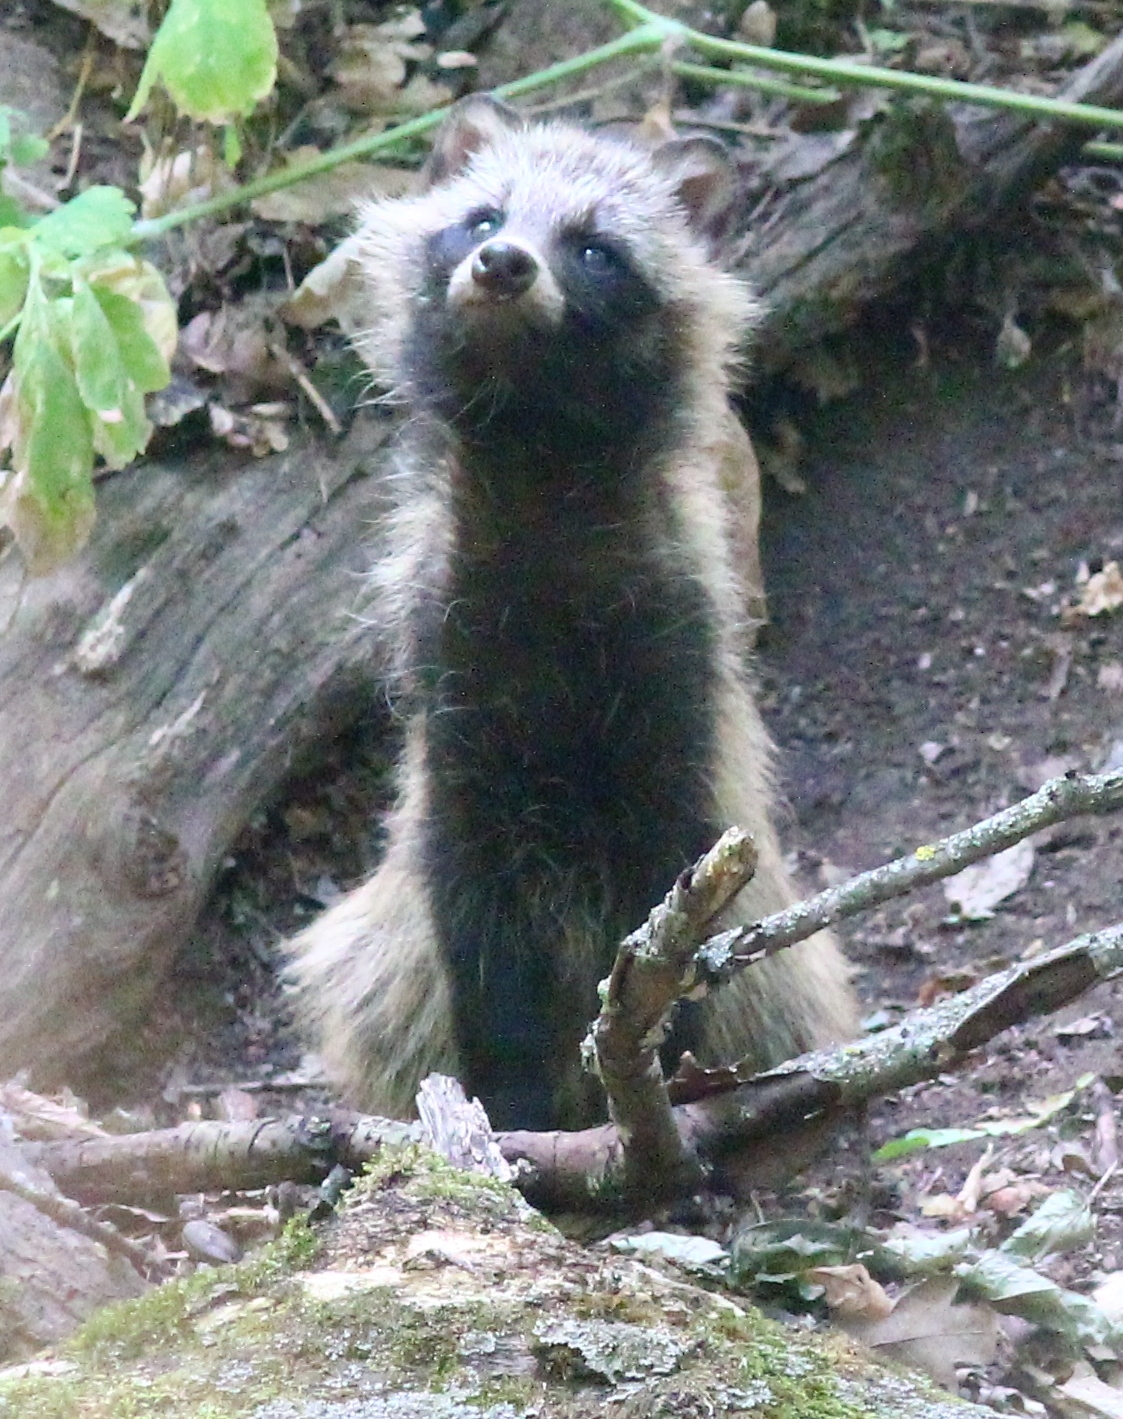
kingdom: Animalia
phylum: Chordata
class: Mammalia
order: Carnivora
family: Canidae
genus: Nyctereutes
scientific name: Nyctereutes procyonoides
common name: Raccoon dog
